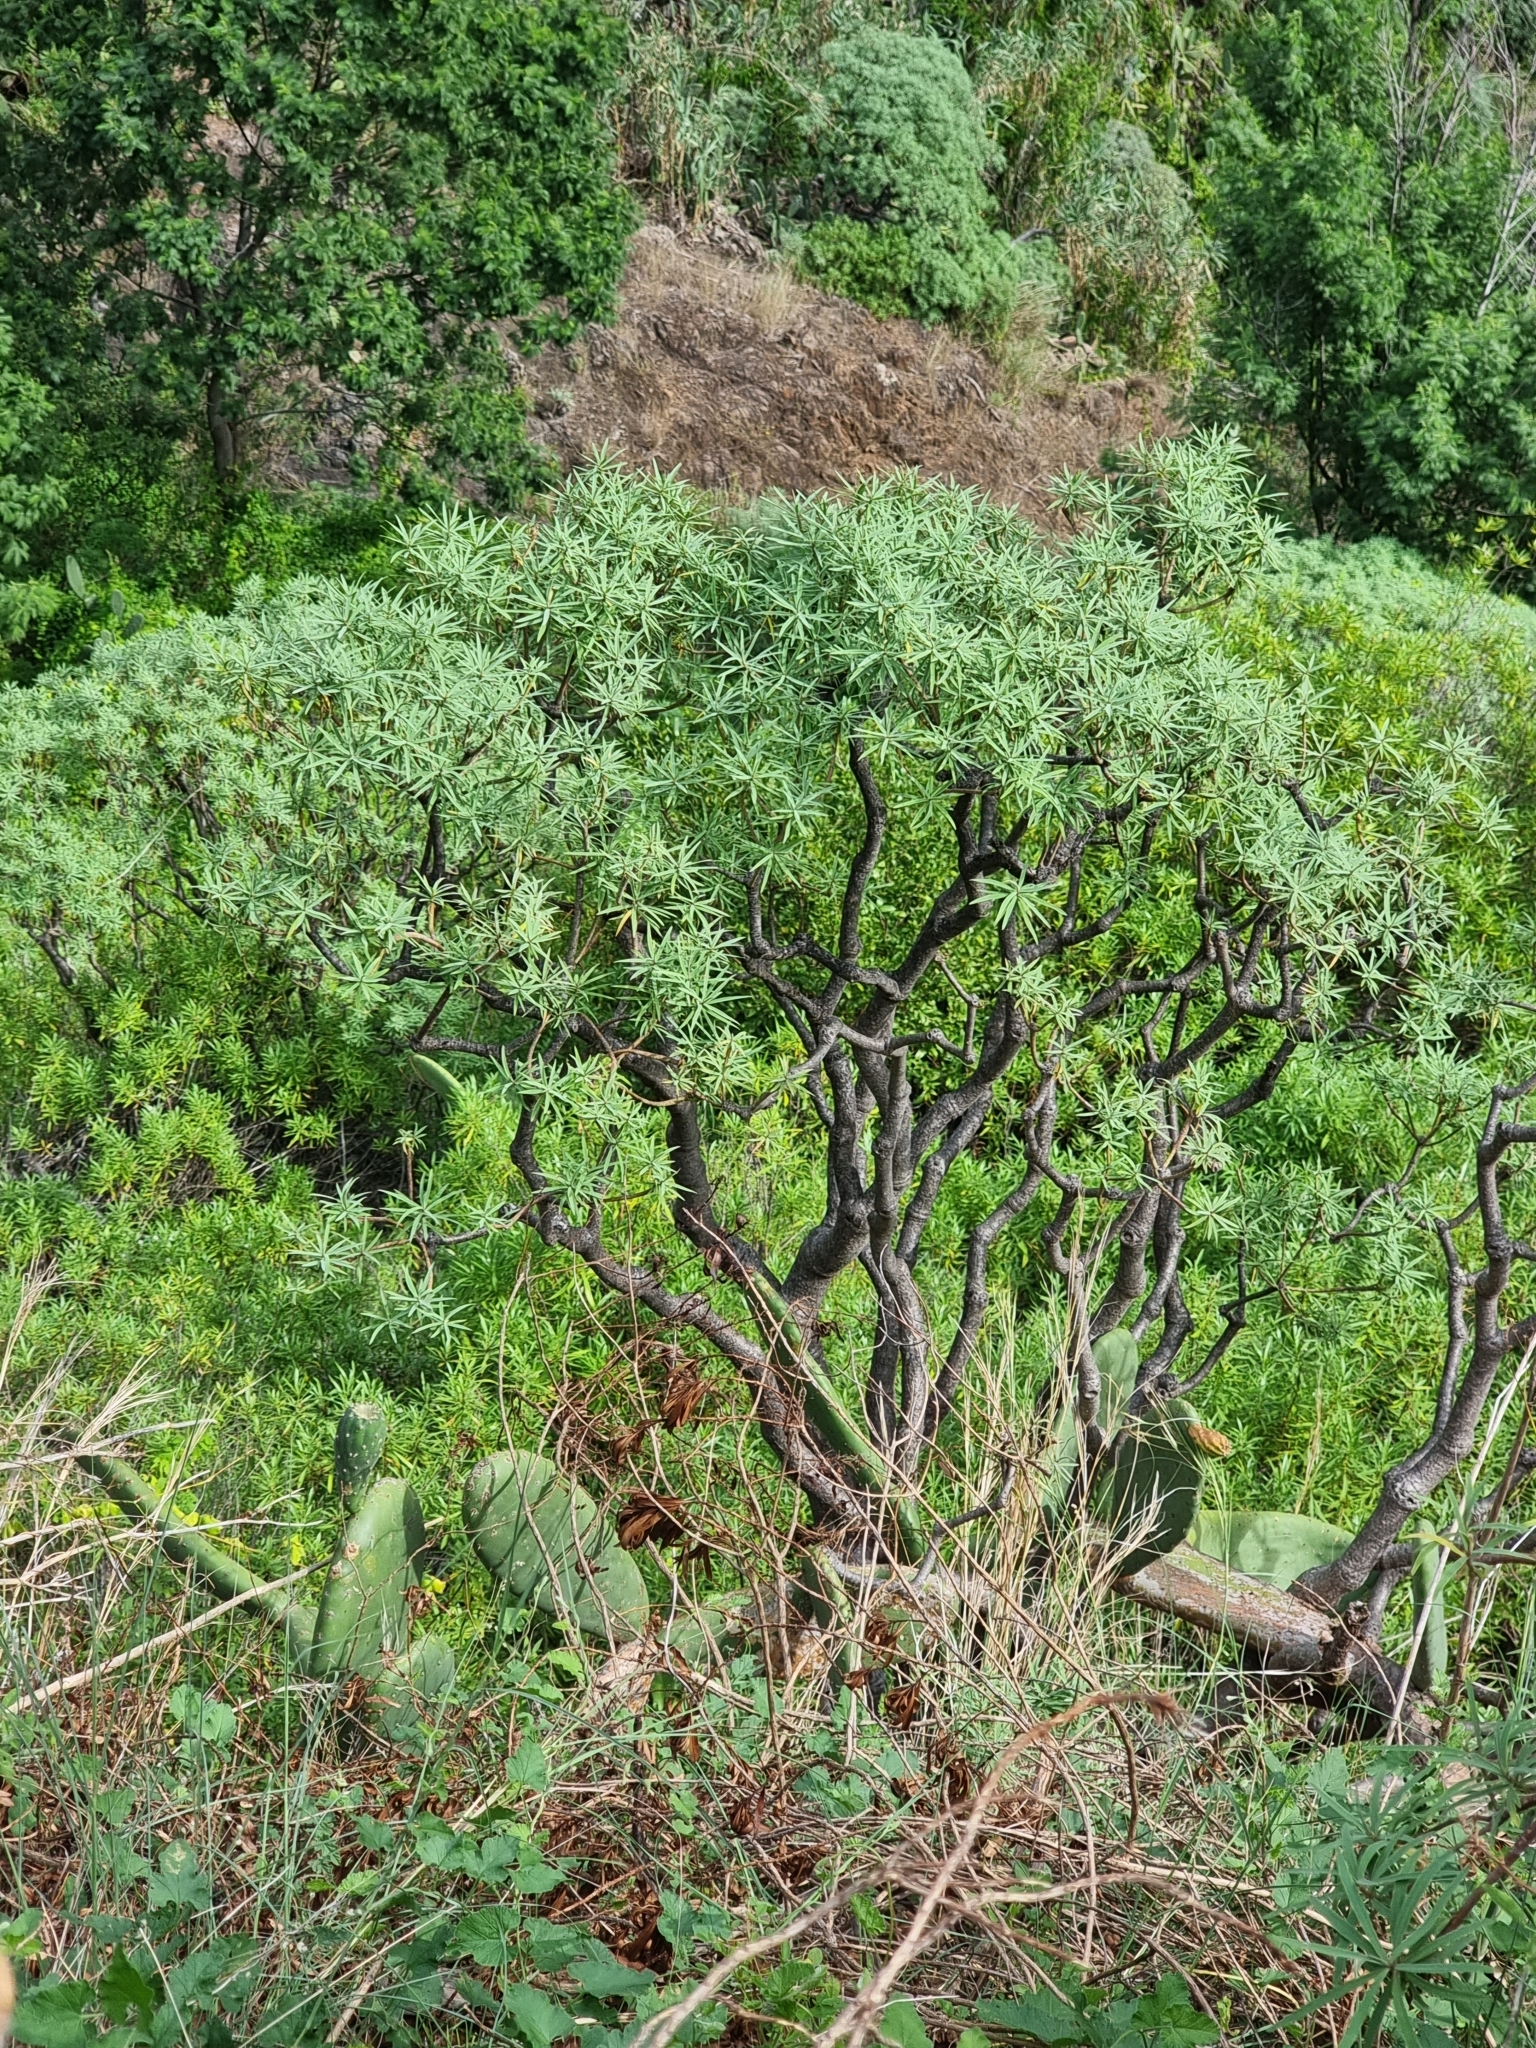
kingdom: Plantae
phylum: Tracheophyta
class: Magnoliopsida
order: Malpighiales
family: Euphorbiaceae
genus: Euphorbia
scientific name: Euphorbia piscatoria
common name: Fish-stunning spurge
